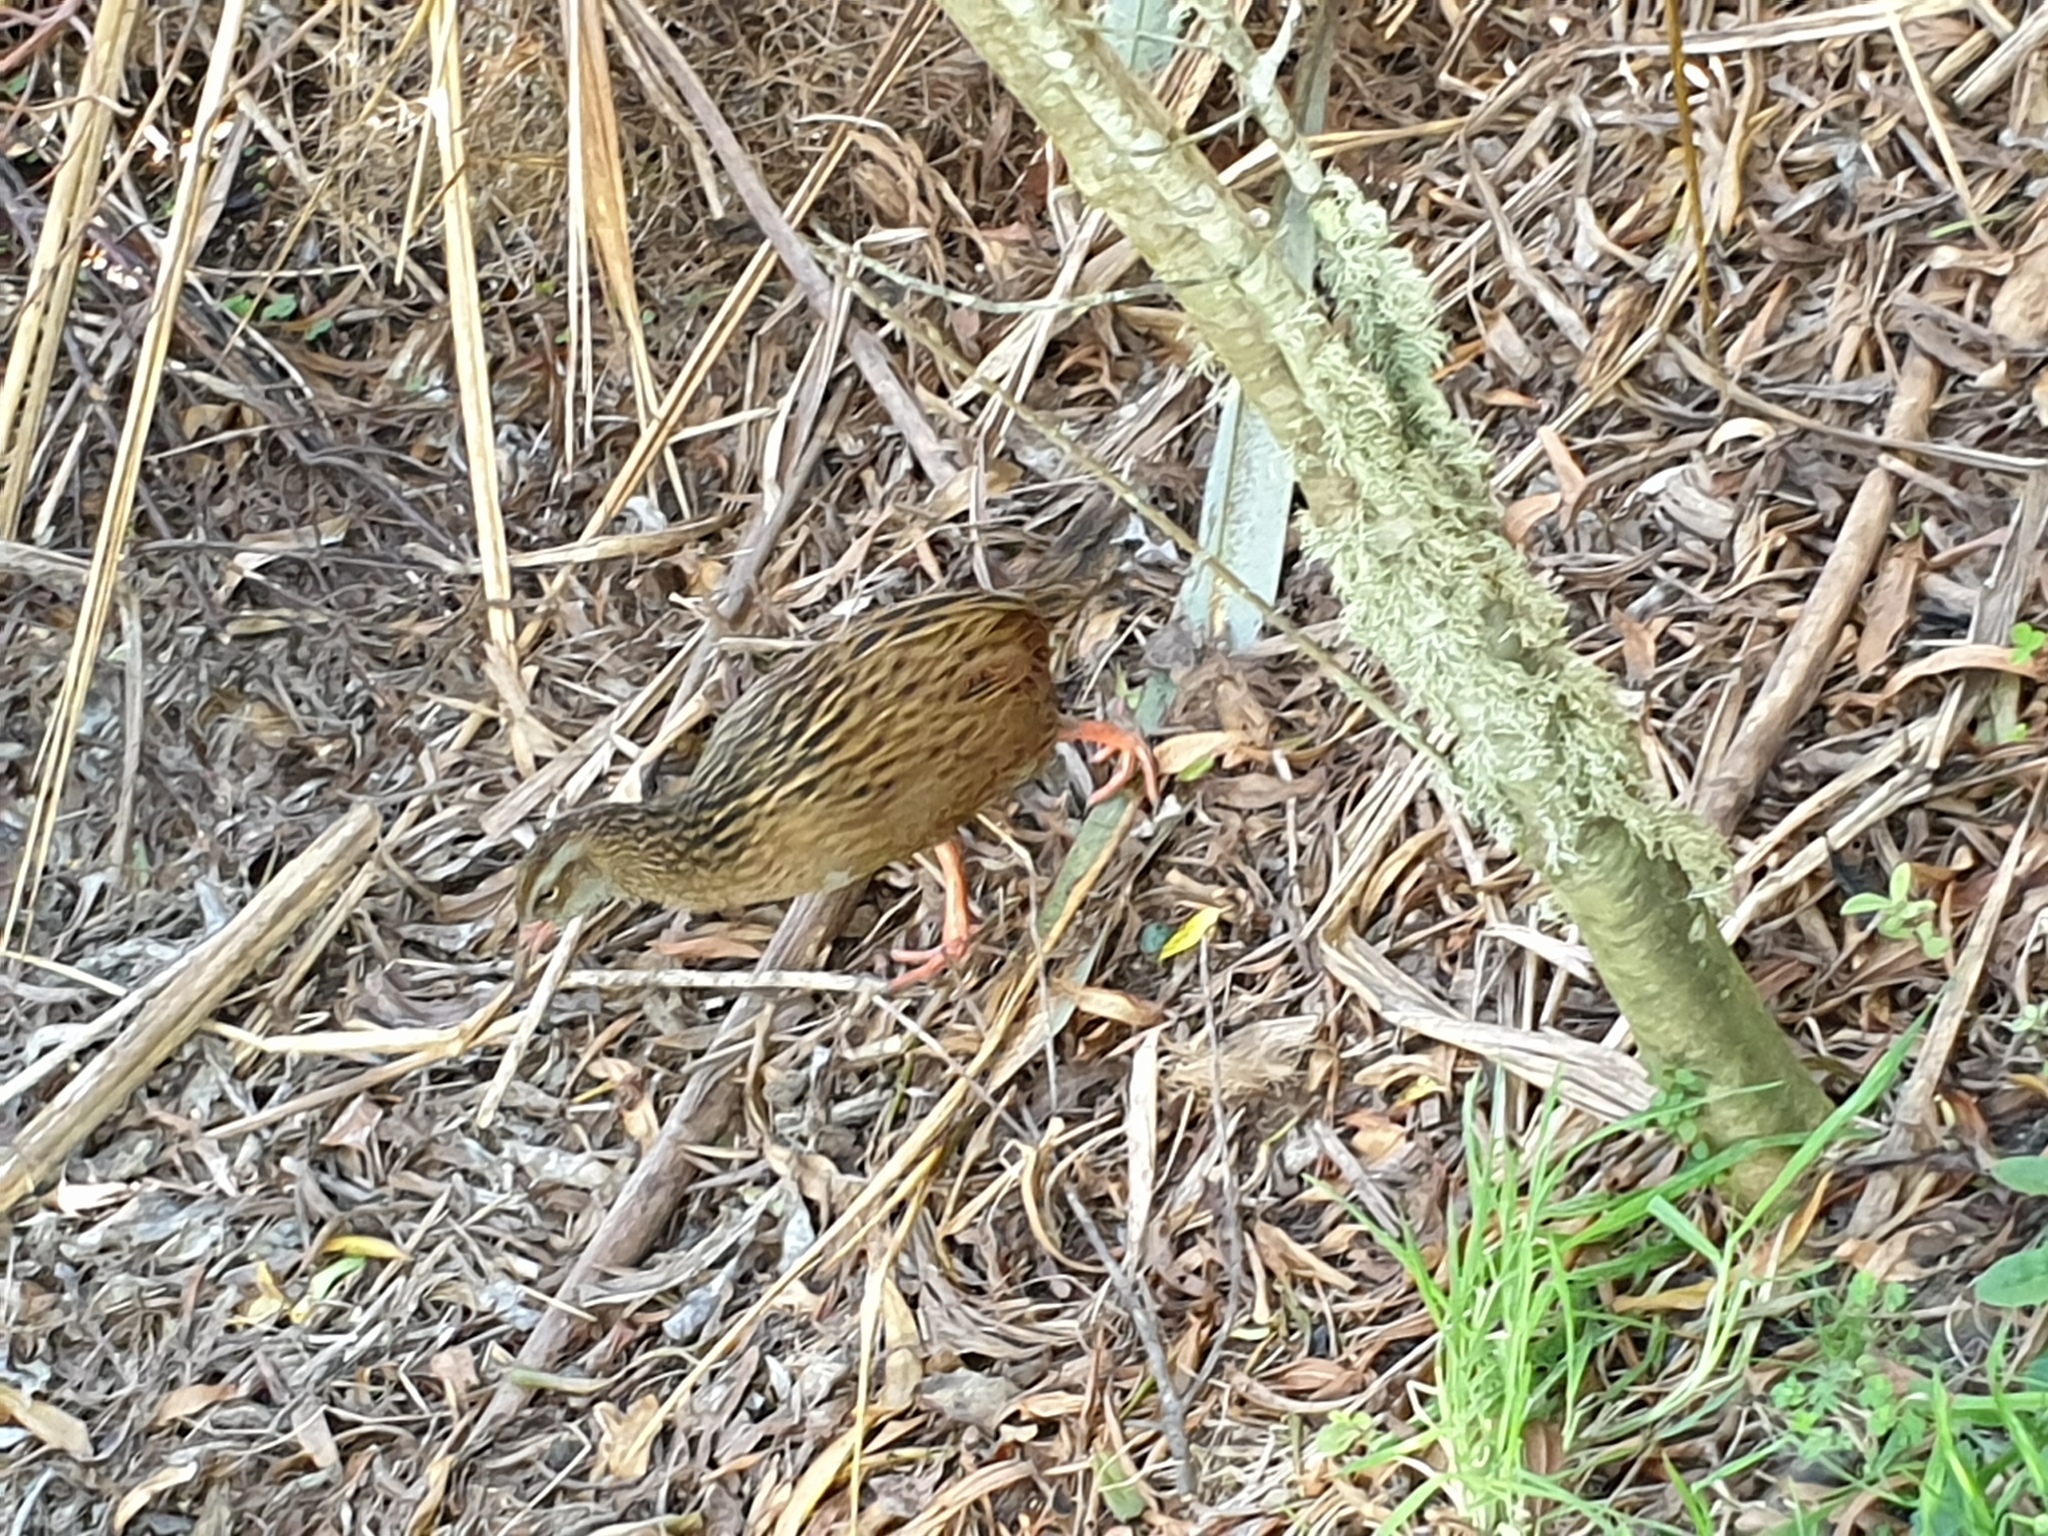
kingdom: Animalia
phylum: Chordata
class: Aves
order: Gruiformes
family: Rallidae
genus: Gallirallus
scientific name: Gallirallus australis
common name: Weka
